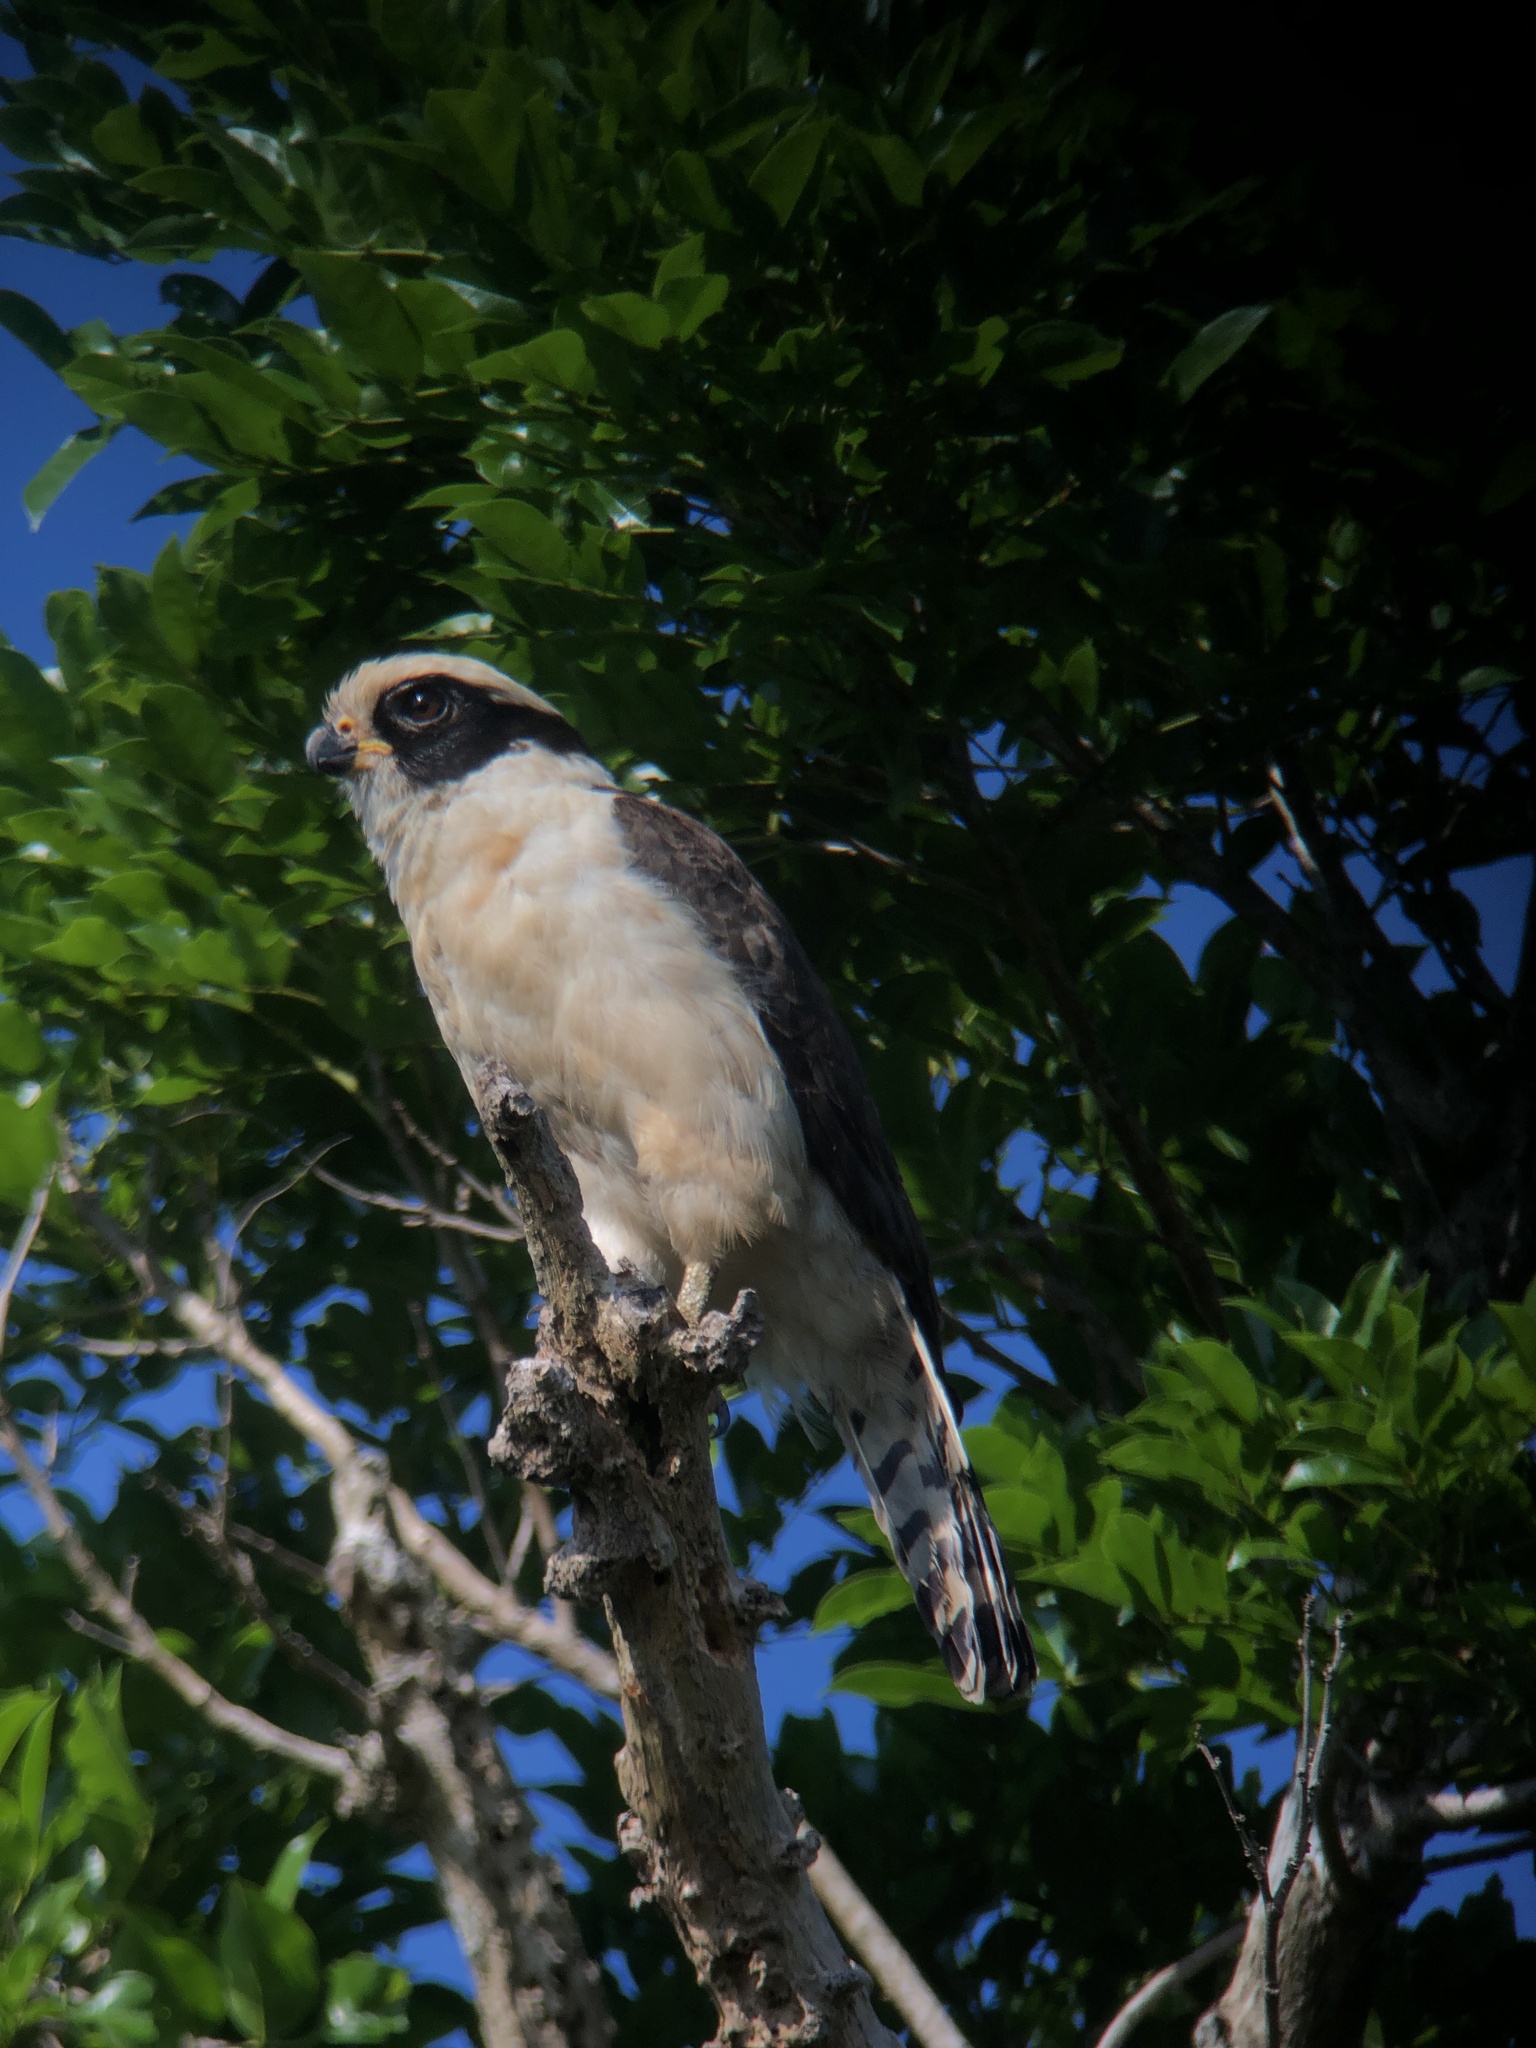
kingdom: Animalia
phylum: Chordata
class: Aves
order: Falconiformes
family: Falconidae
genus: Herpetotheres
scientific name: Herpetotheres cachinnans
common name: Laughing falcon
